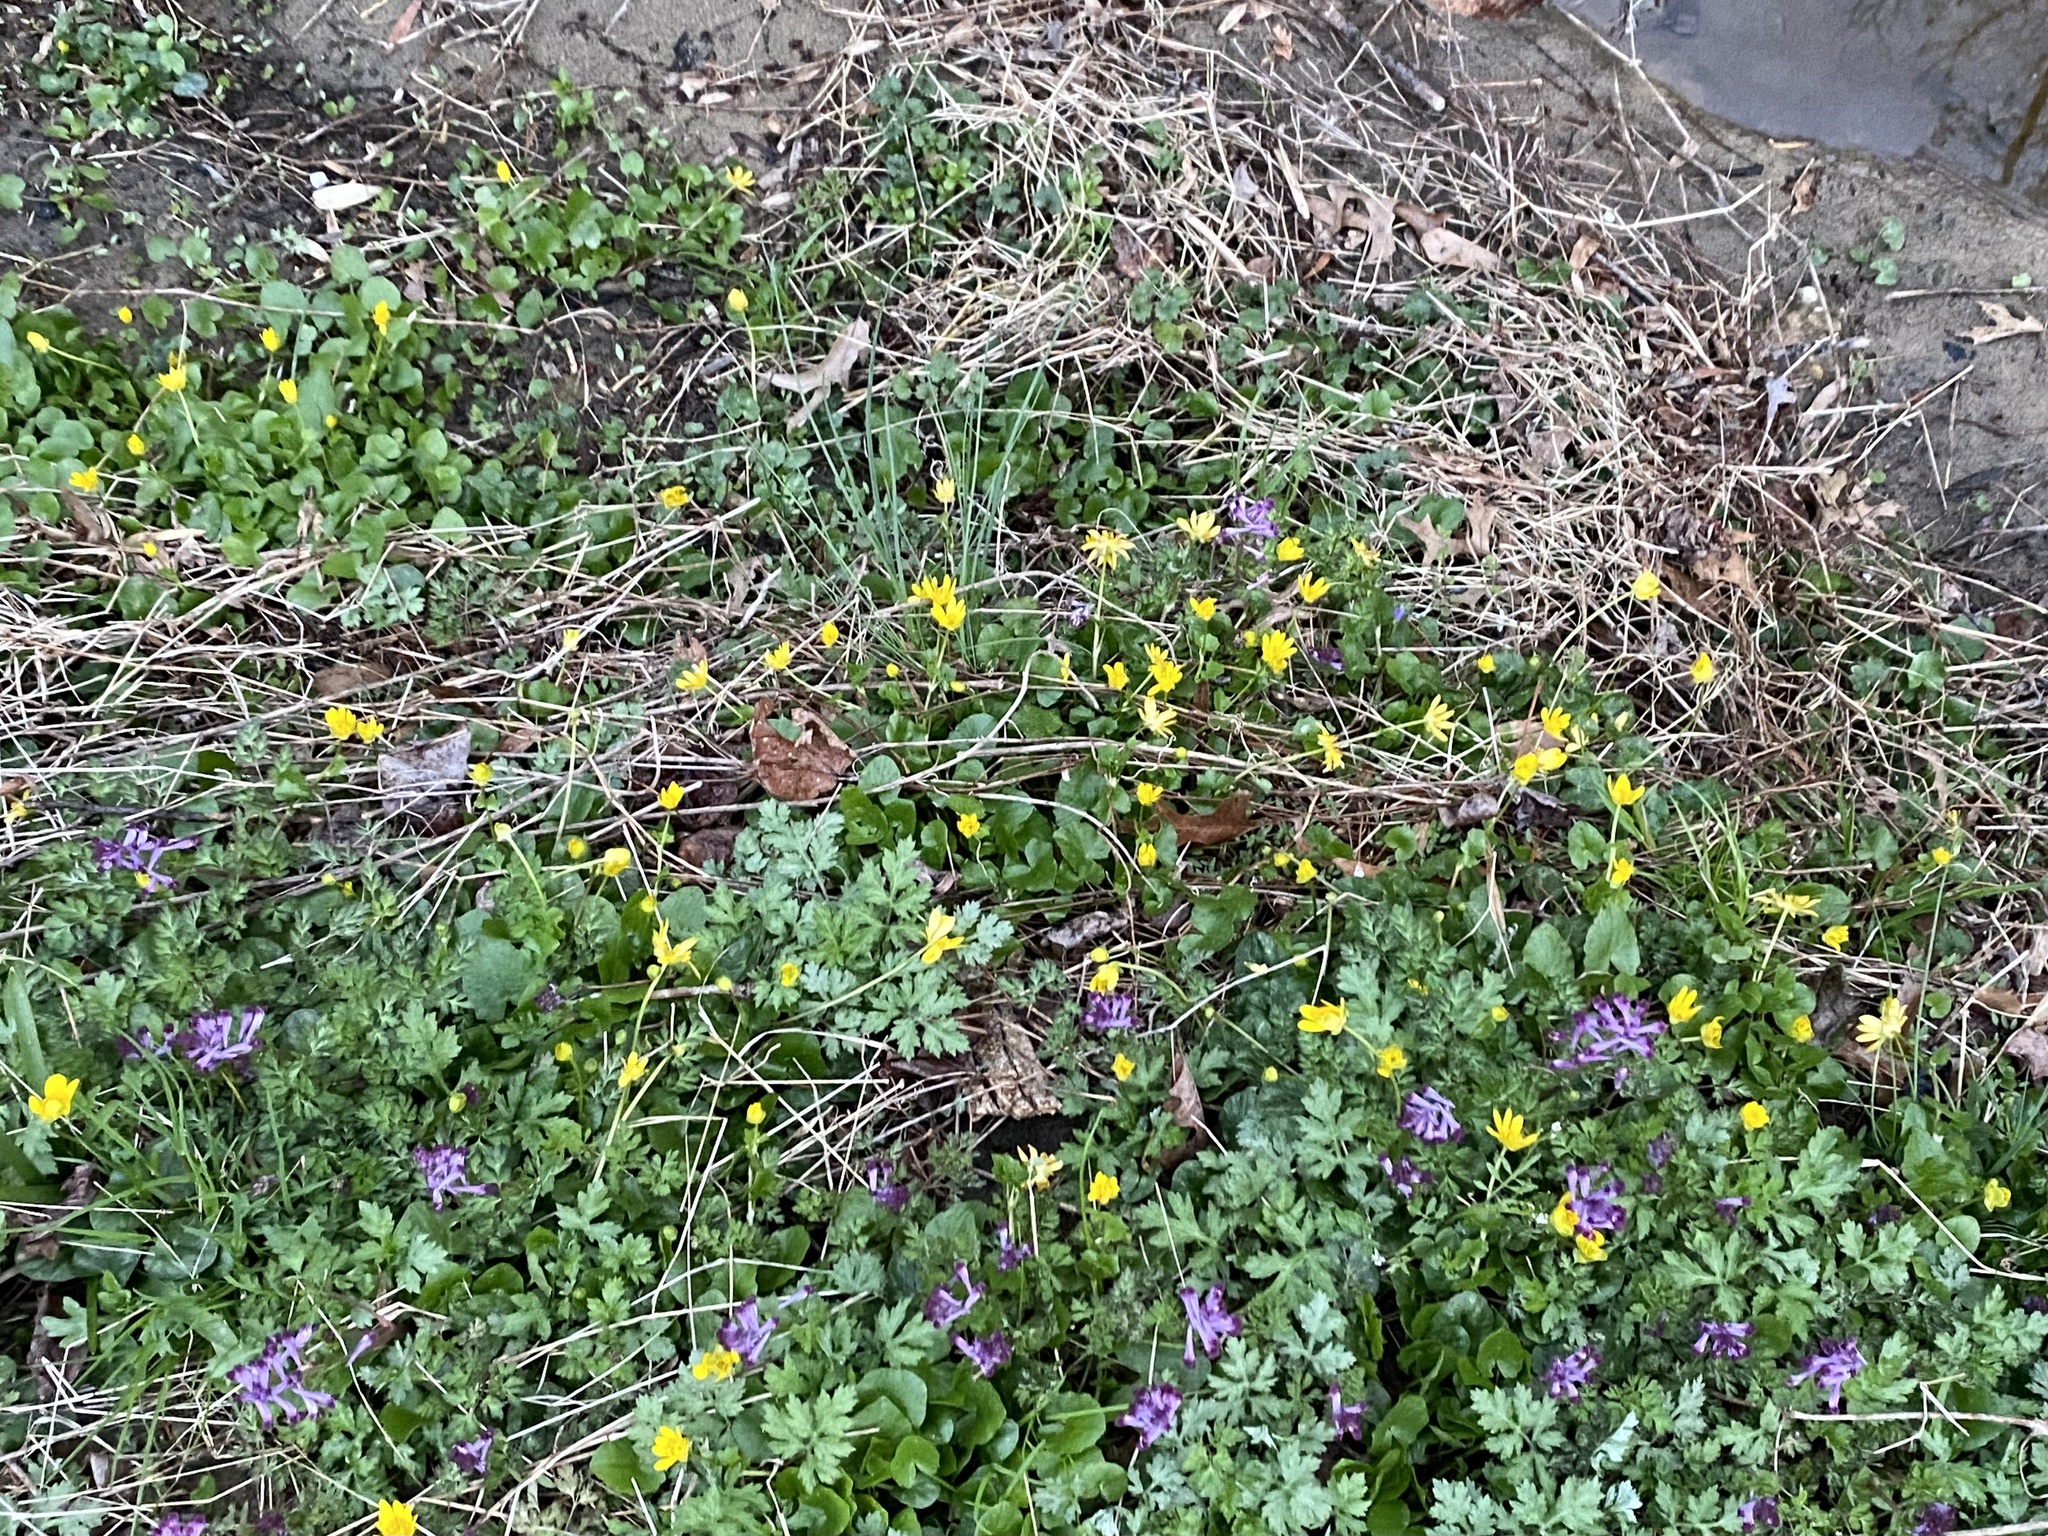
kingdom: Plantae
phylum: Tracheophyta
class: Magnoliopsida
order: Ranunculales
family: Papaveraceae
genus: Corydalis
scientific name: Corydalis incisa
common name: Incised fumewort
